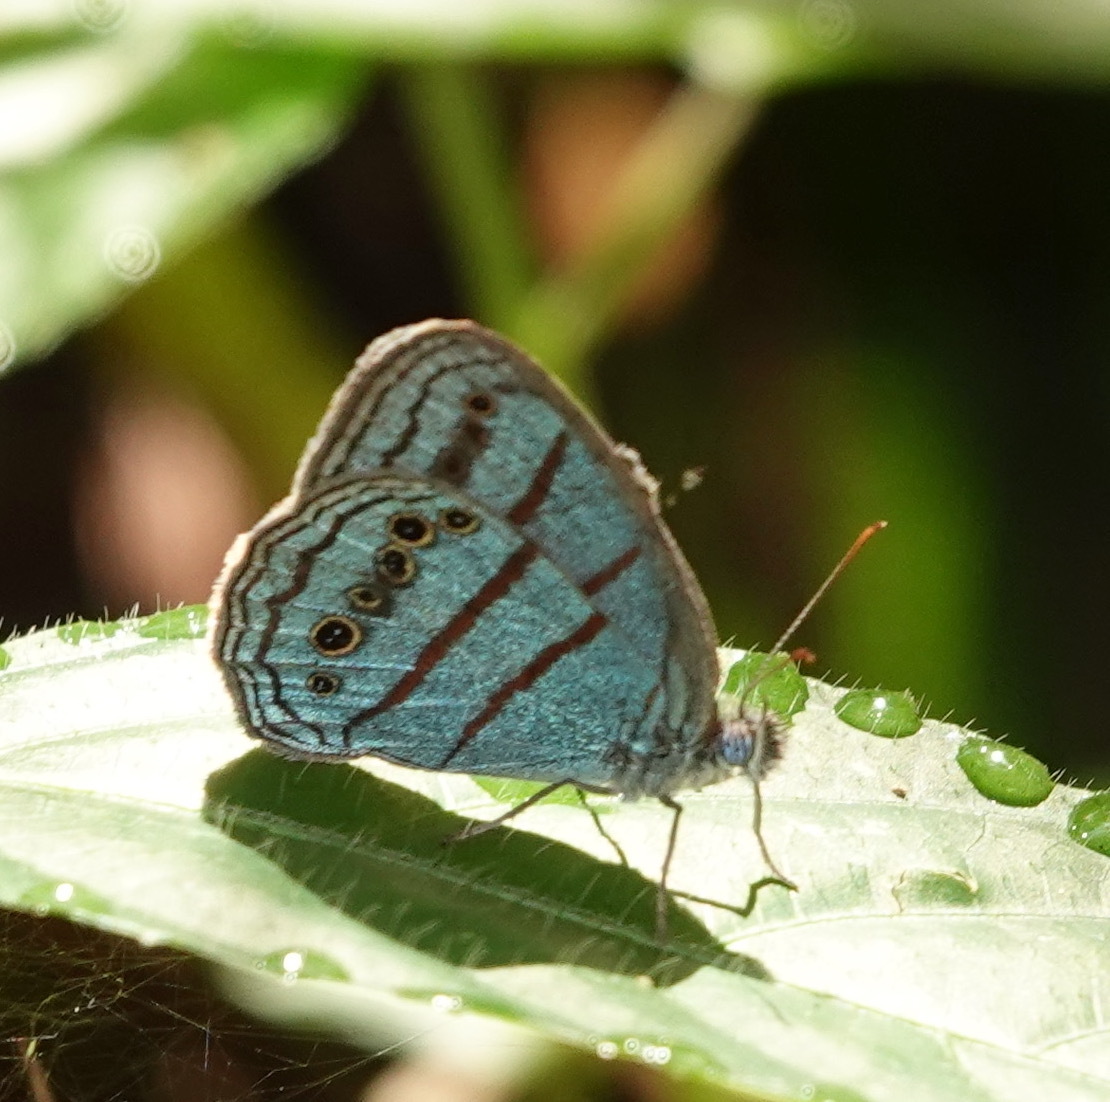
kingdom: Animalia
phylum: Arthropoda
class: Insecta
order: Lepidoptera
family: Nymphalidae
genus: Caeruleuptychia
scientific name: Caeruleuptychia twalela
